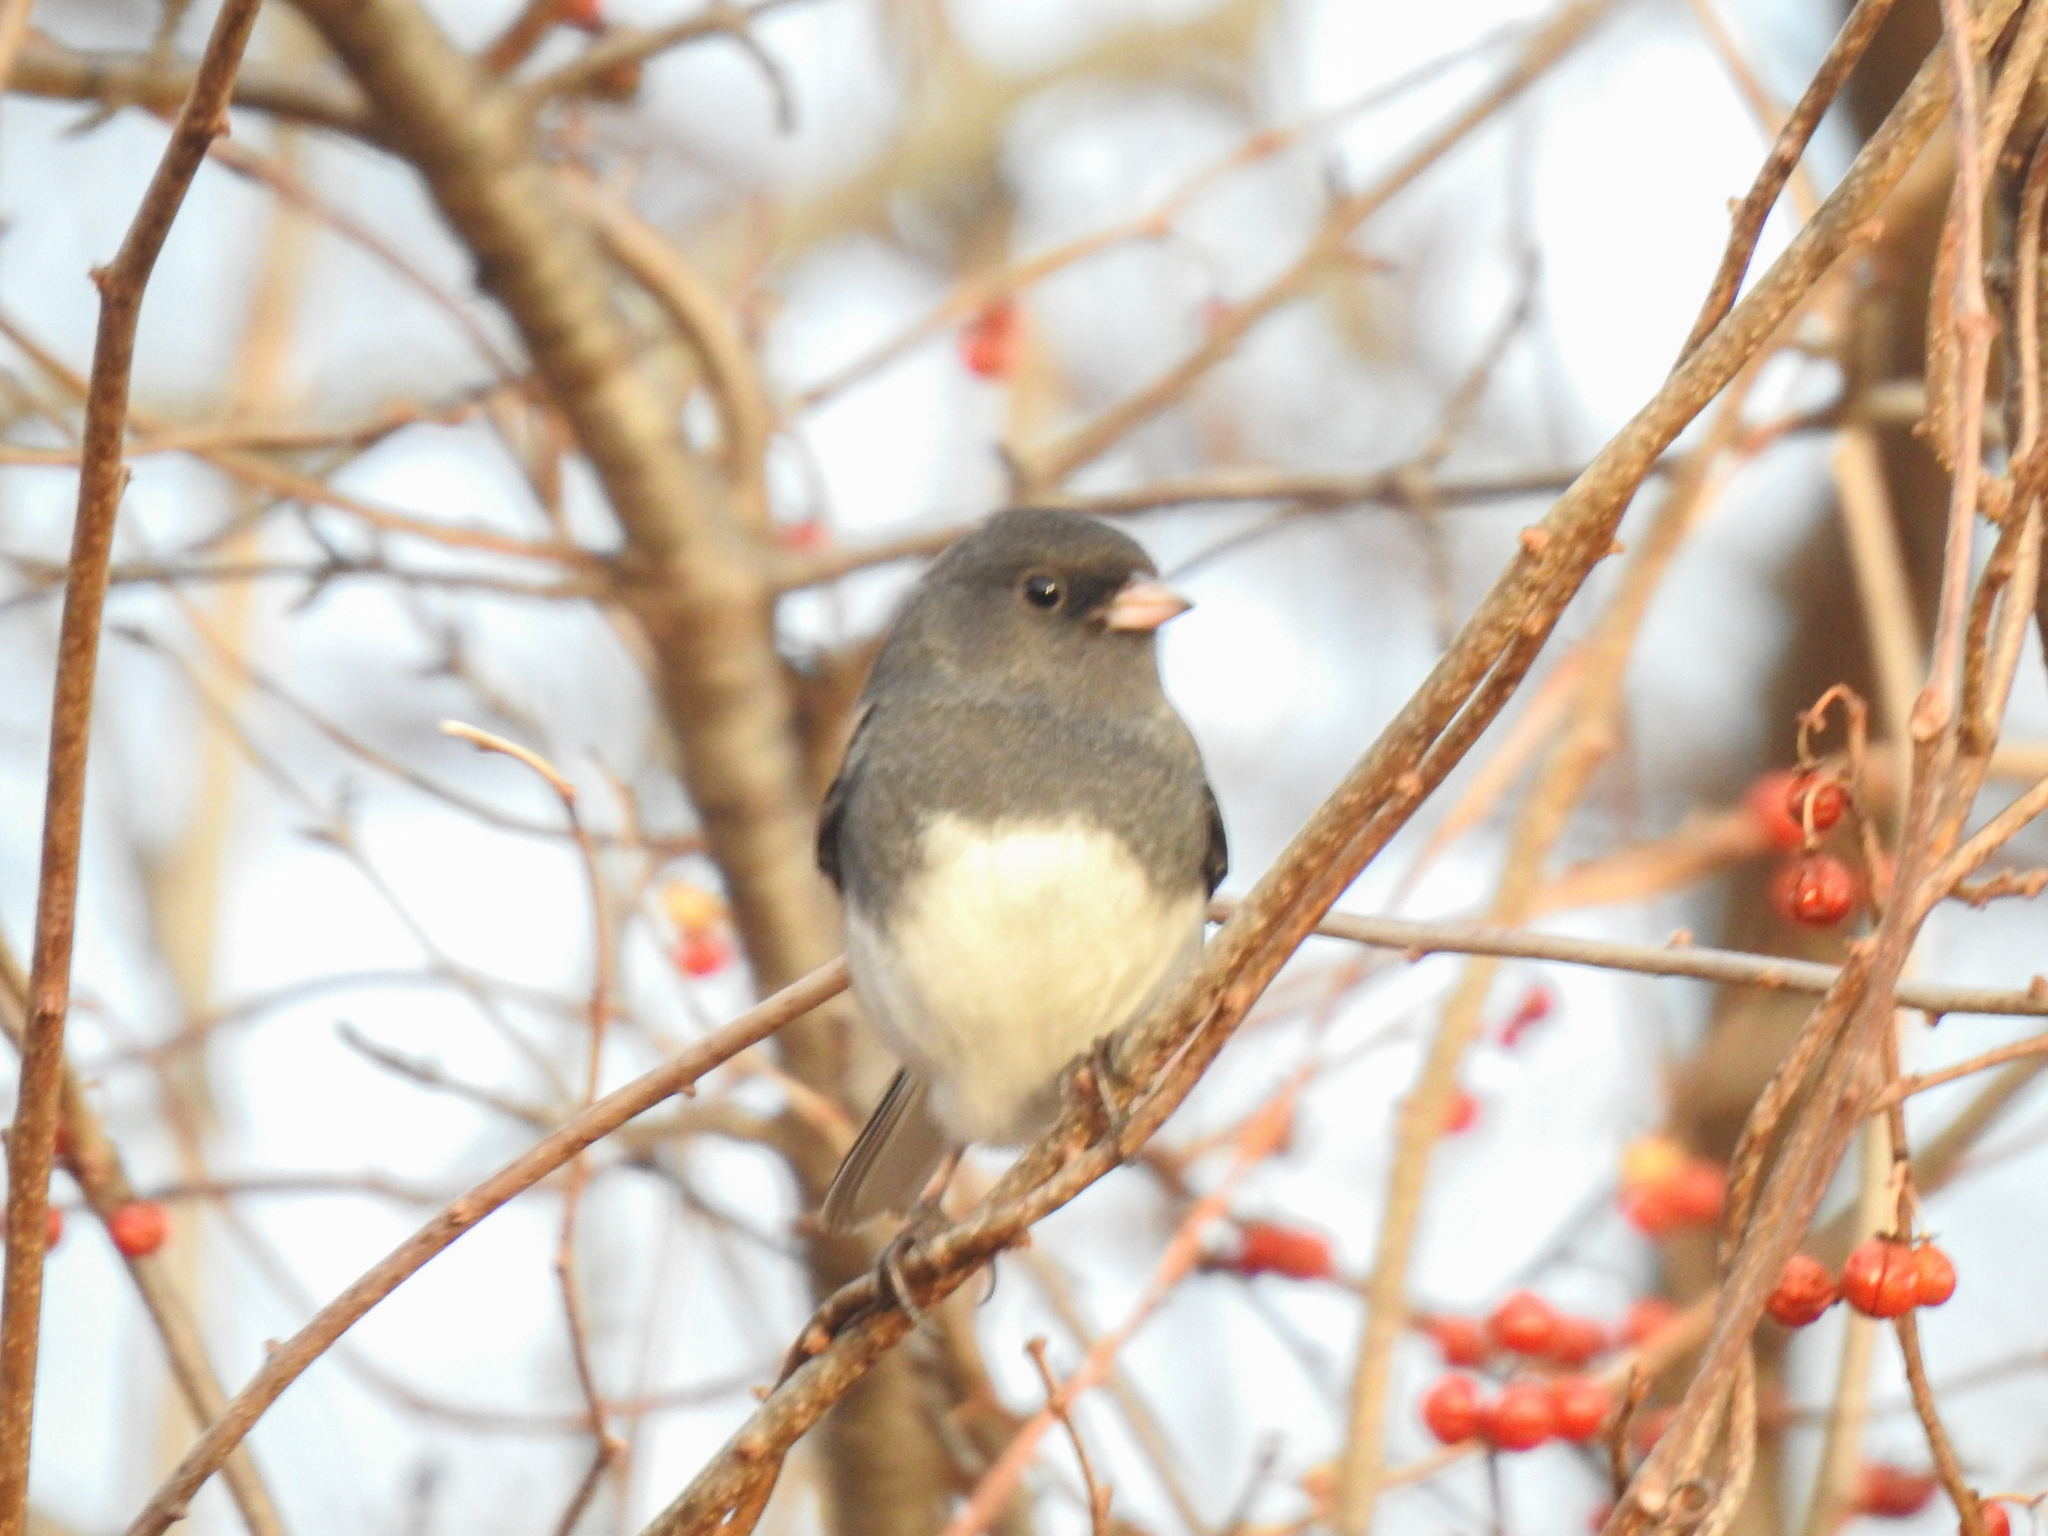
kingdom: Animalia
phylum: Chordata
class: Aves
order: Passeriformes
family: Passerellidae
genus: Junco
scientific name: Junco hyemalis
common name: Dark-eyed junco
